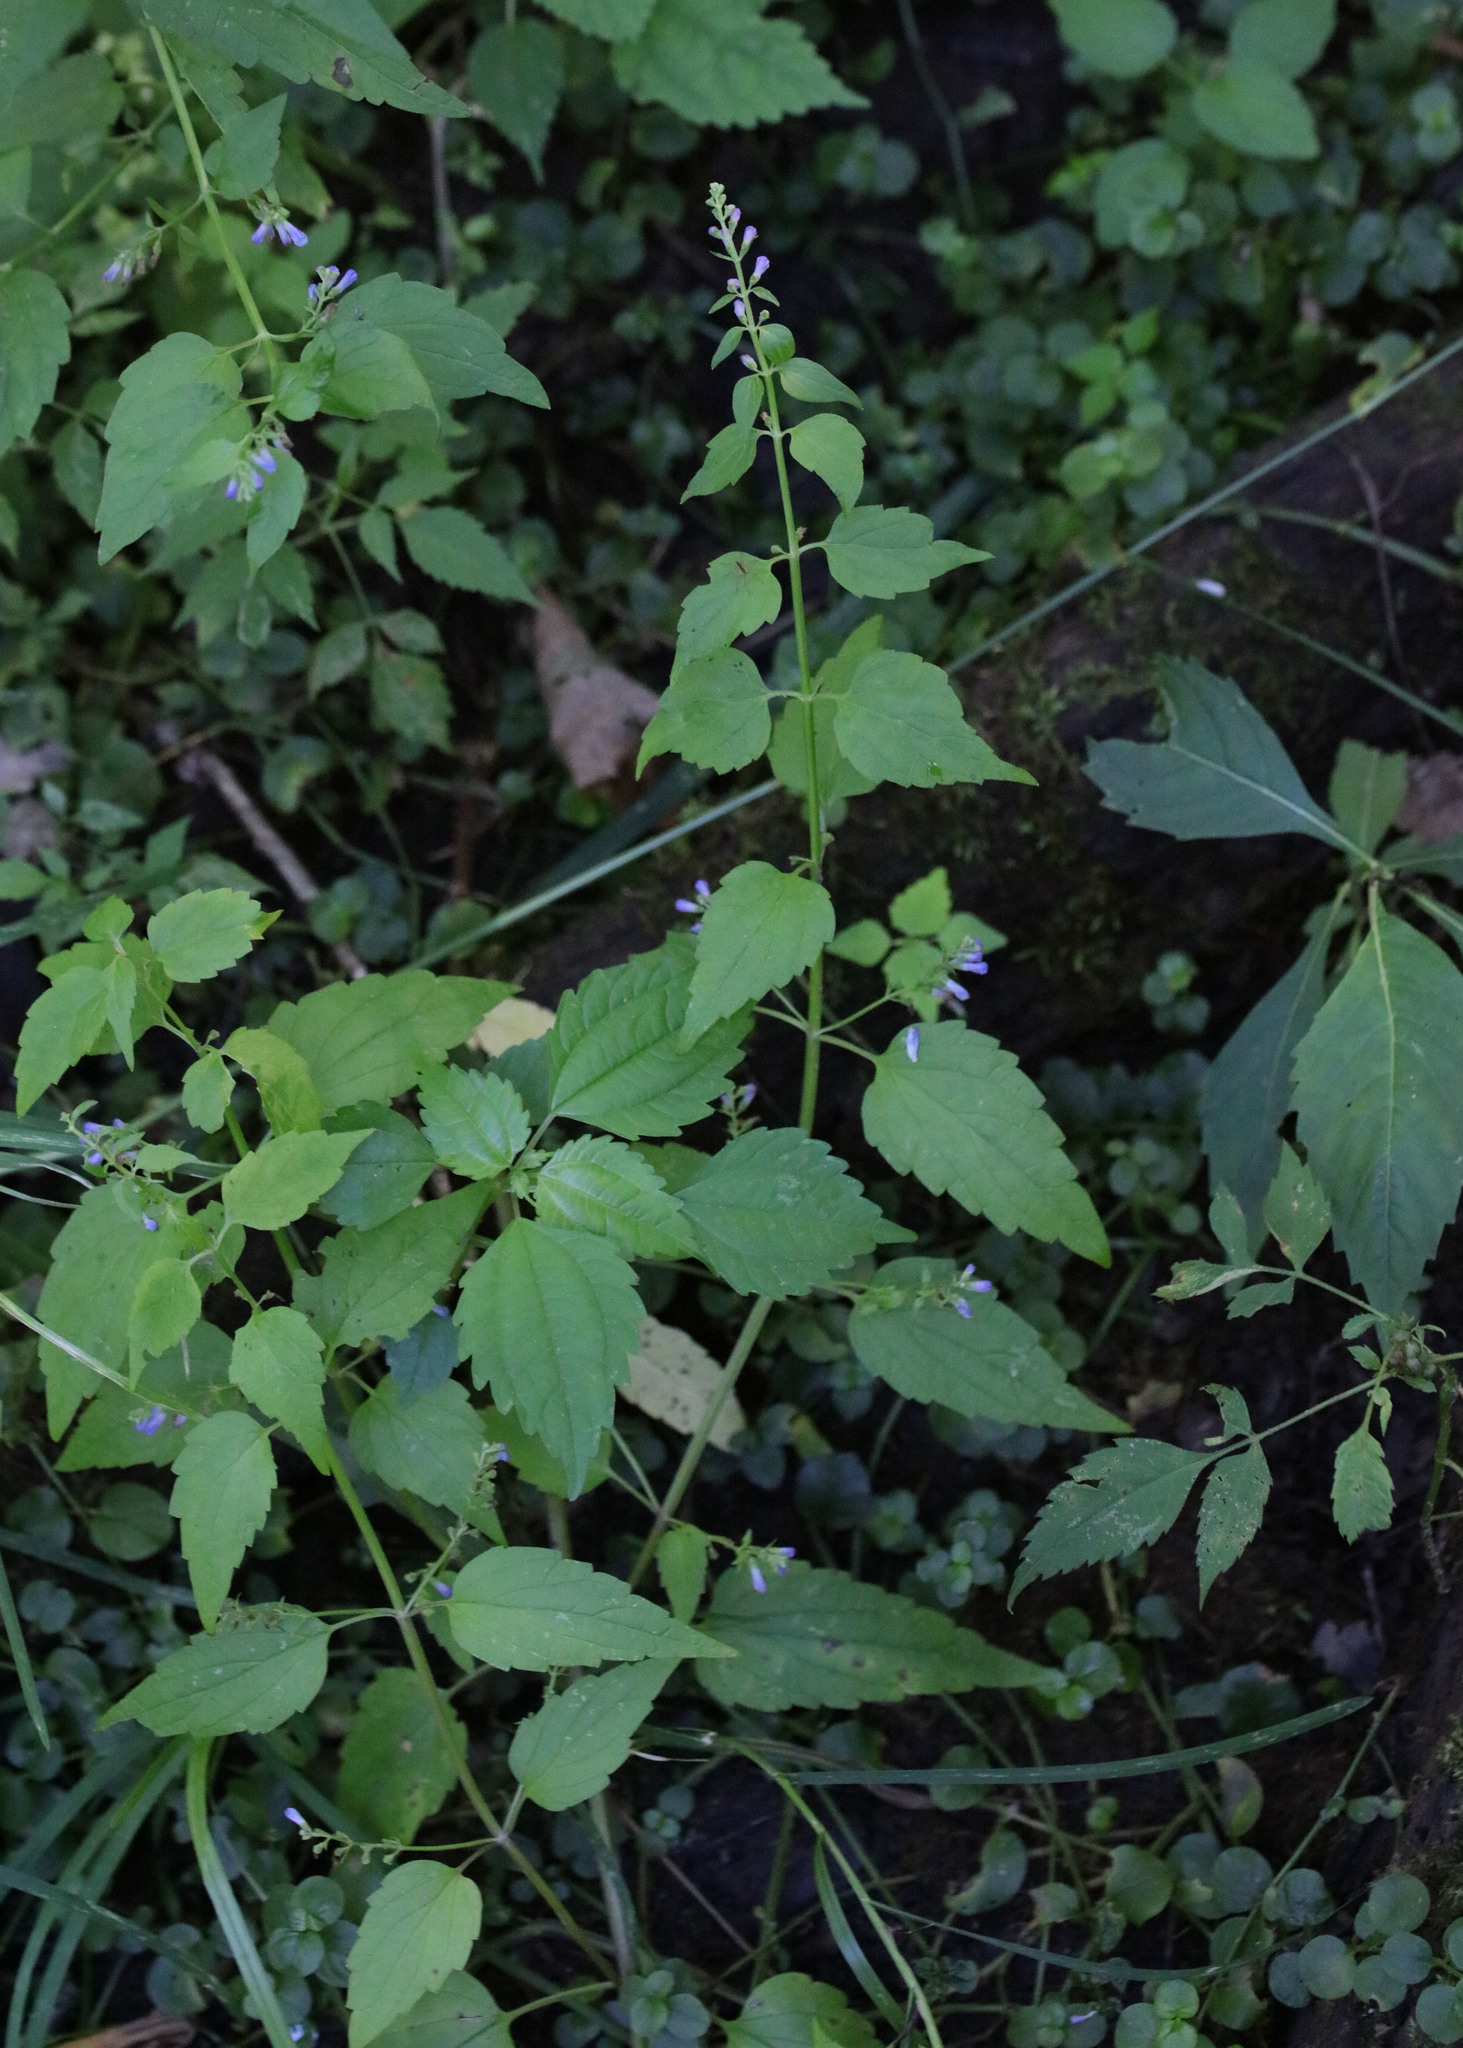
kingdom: Plantae
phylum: Tracheophyta
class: Magnoliopsida
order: Lamiales
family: Lamiaceae
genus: Scutellaria
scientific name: Scutellaria lateriflora
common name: Blue skullcap
